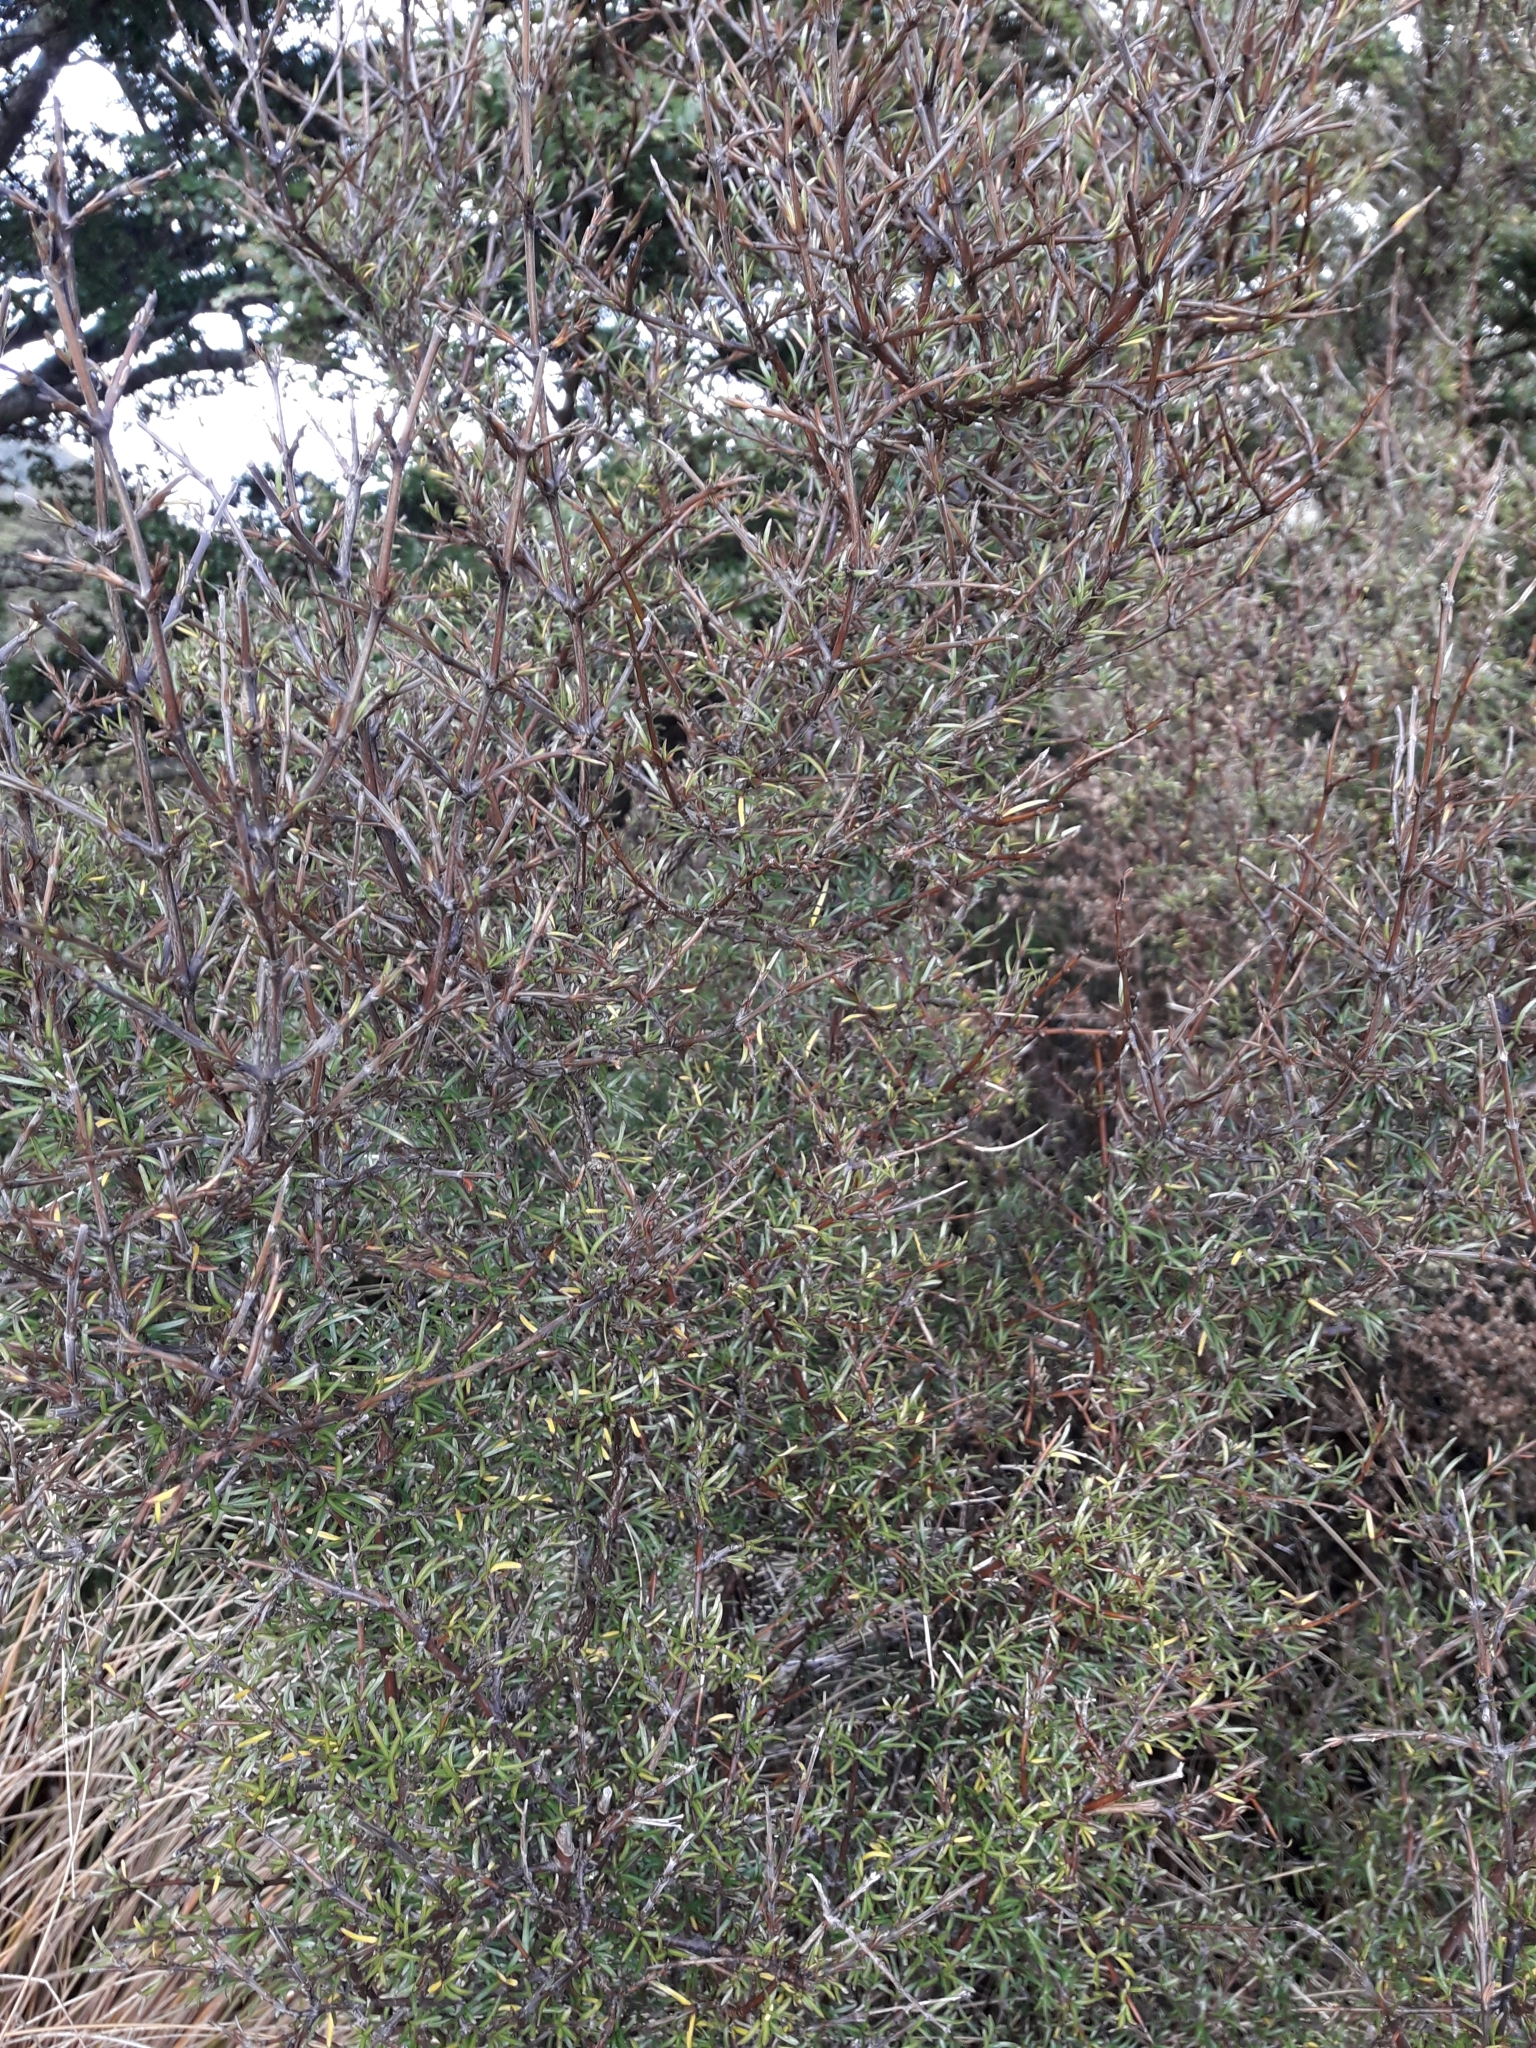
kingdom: Plantae
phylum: Tracheophyta
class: Magnoliopsida
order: Gentianales
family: Rubiaceae
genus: Coprosma
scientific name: Coprosma rugosa
